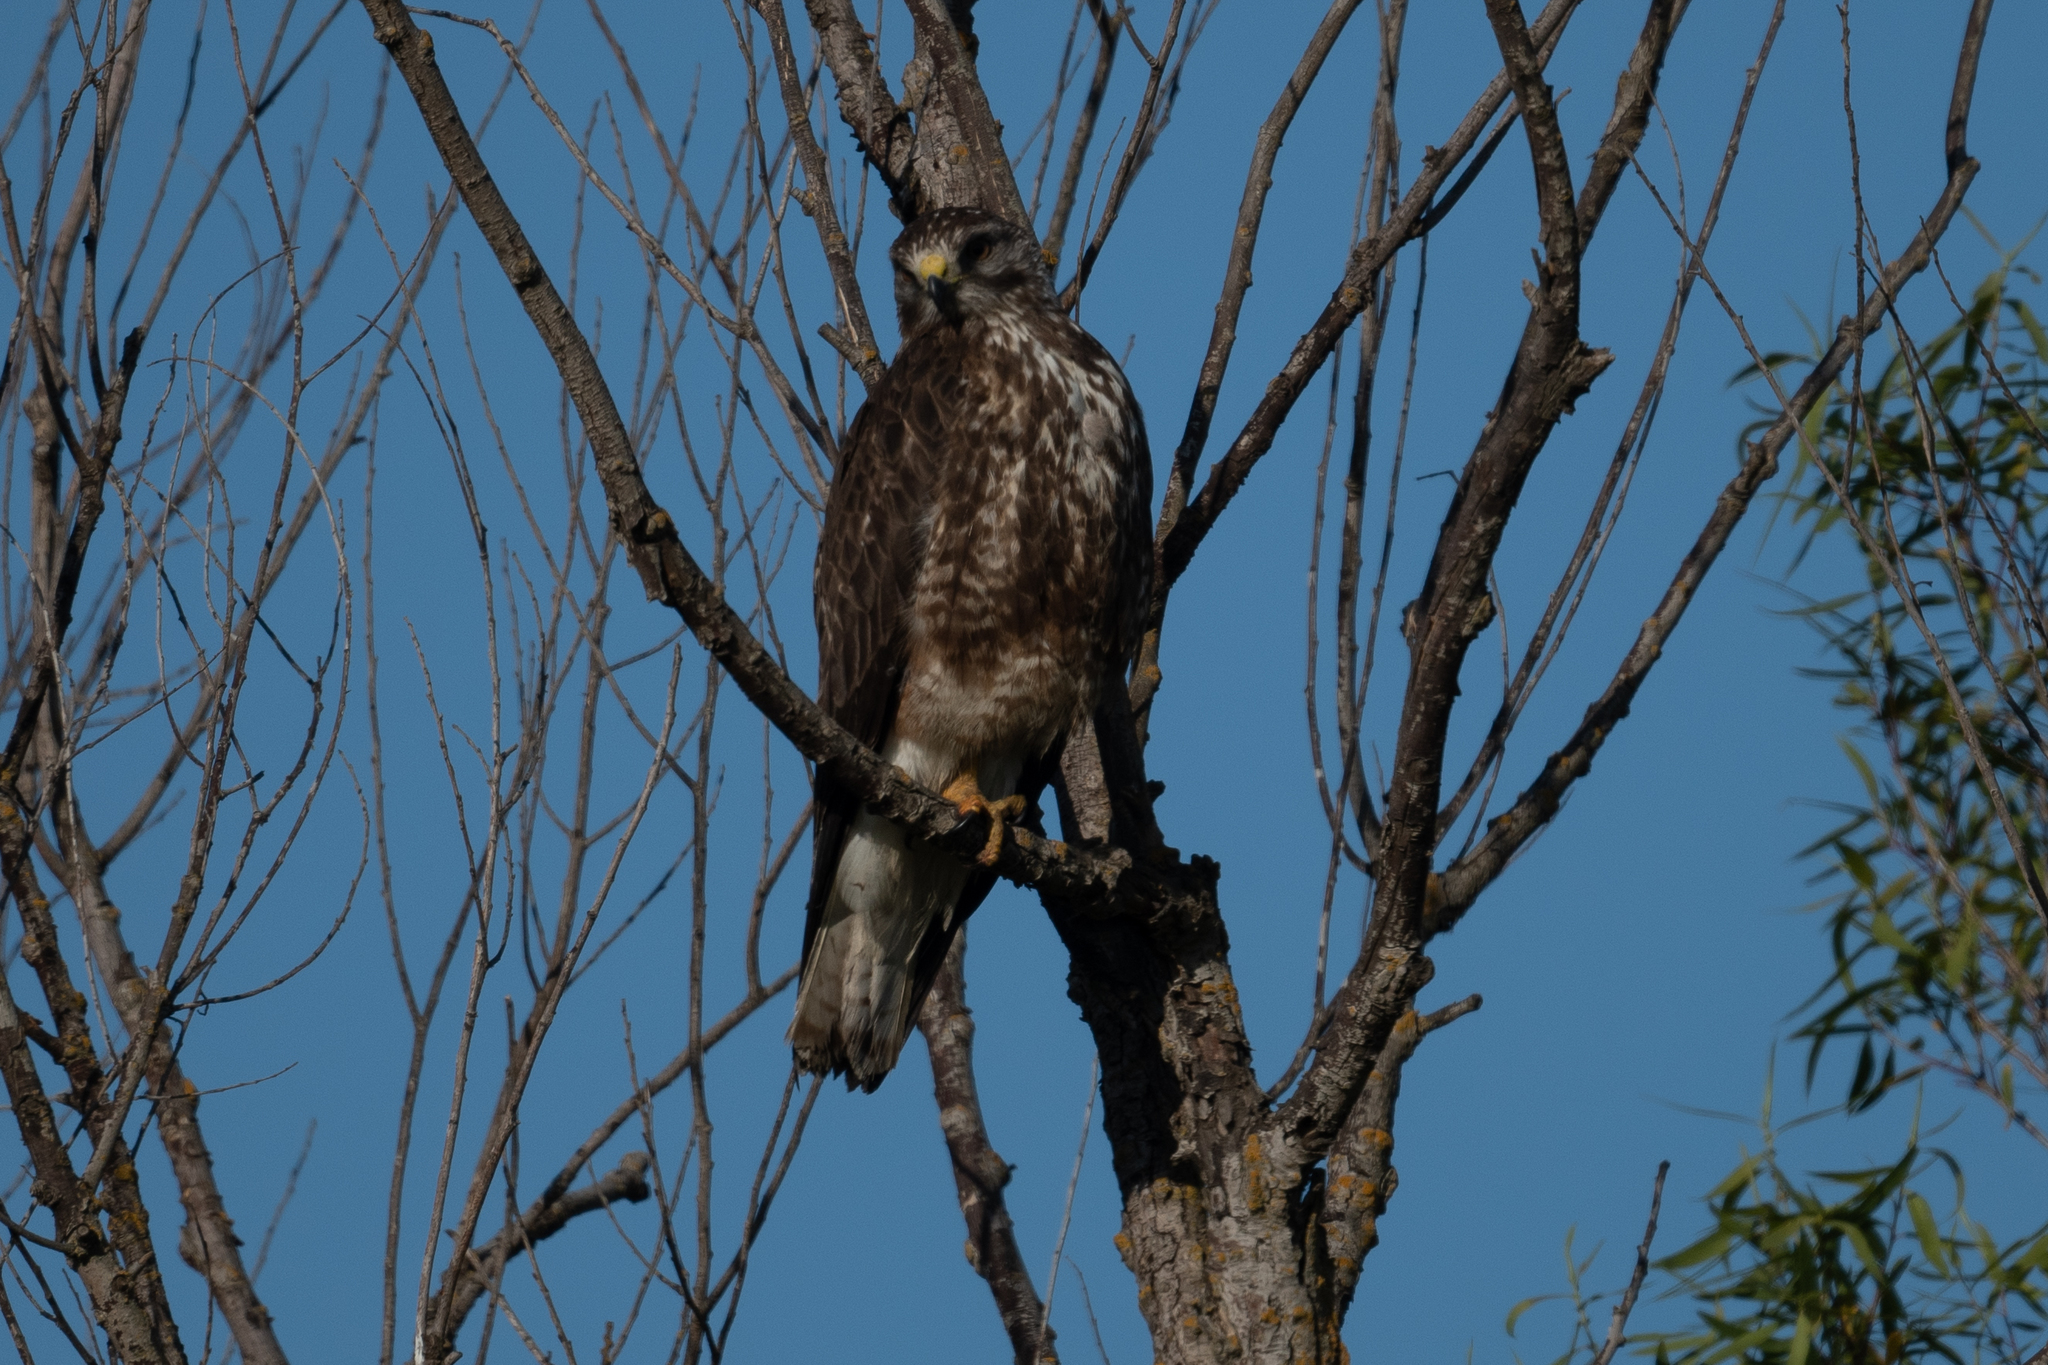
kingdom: Animalia
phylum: Chordata
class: Aves
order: Accipitriformes
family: Accipitridae
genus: Buteo
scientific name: Buteo swainsoni
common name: Swainson's hawk
